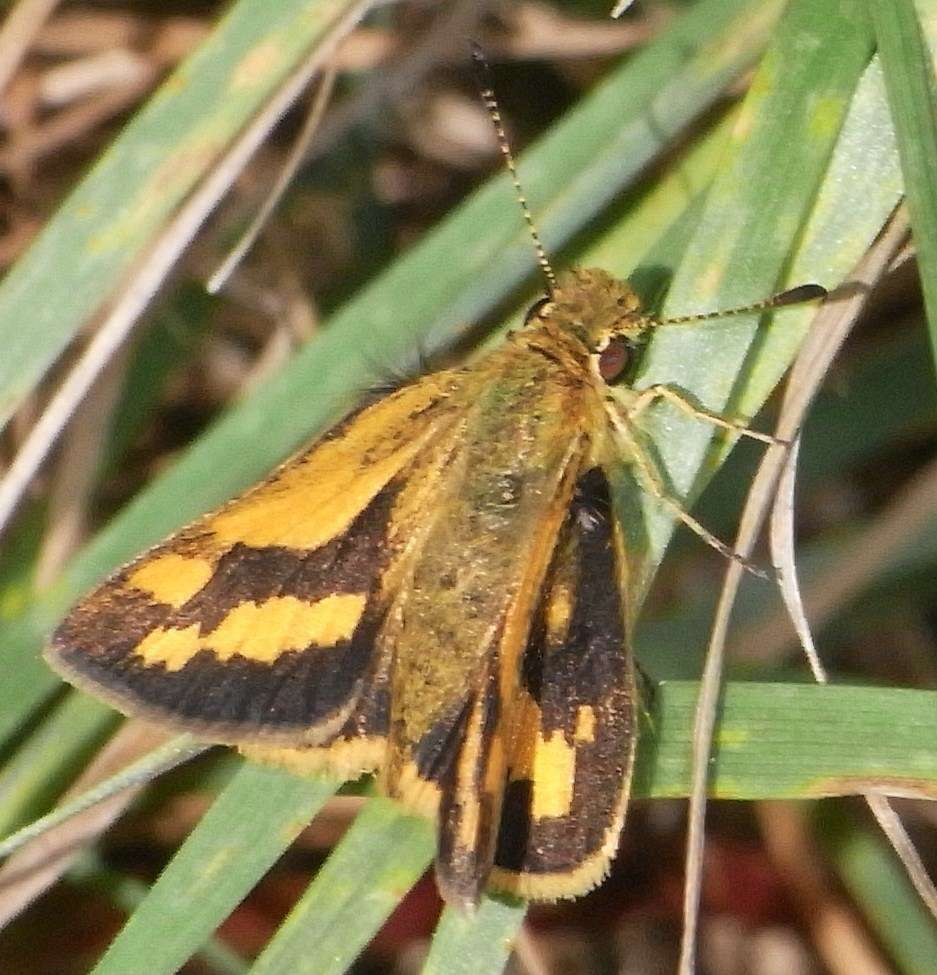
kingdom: Animalia
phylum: Arthropoda
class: Insecta
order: Lepidoptera
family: Hesperiidae
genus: Ocybadistes
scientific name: Ocybadistes walkeri
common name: Yellow-banded dart
